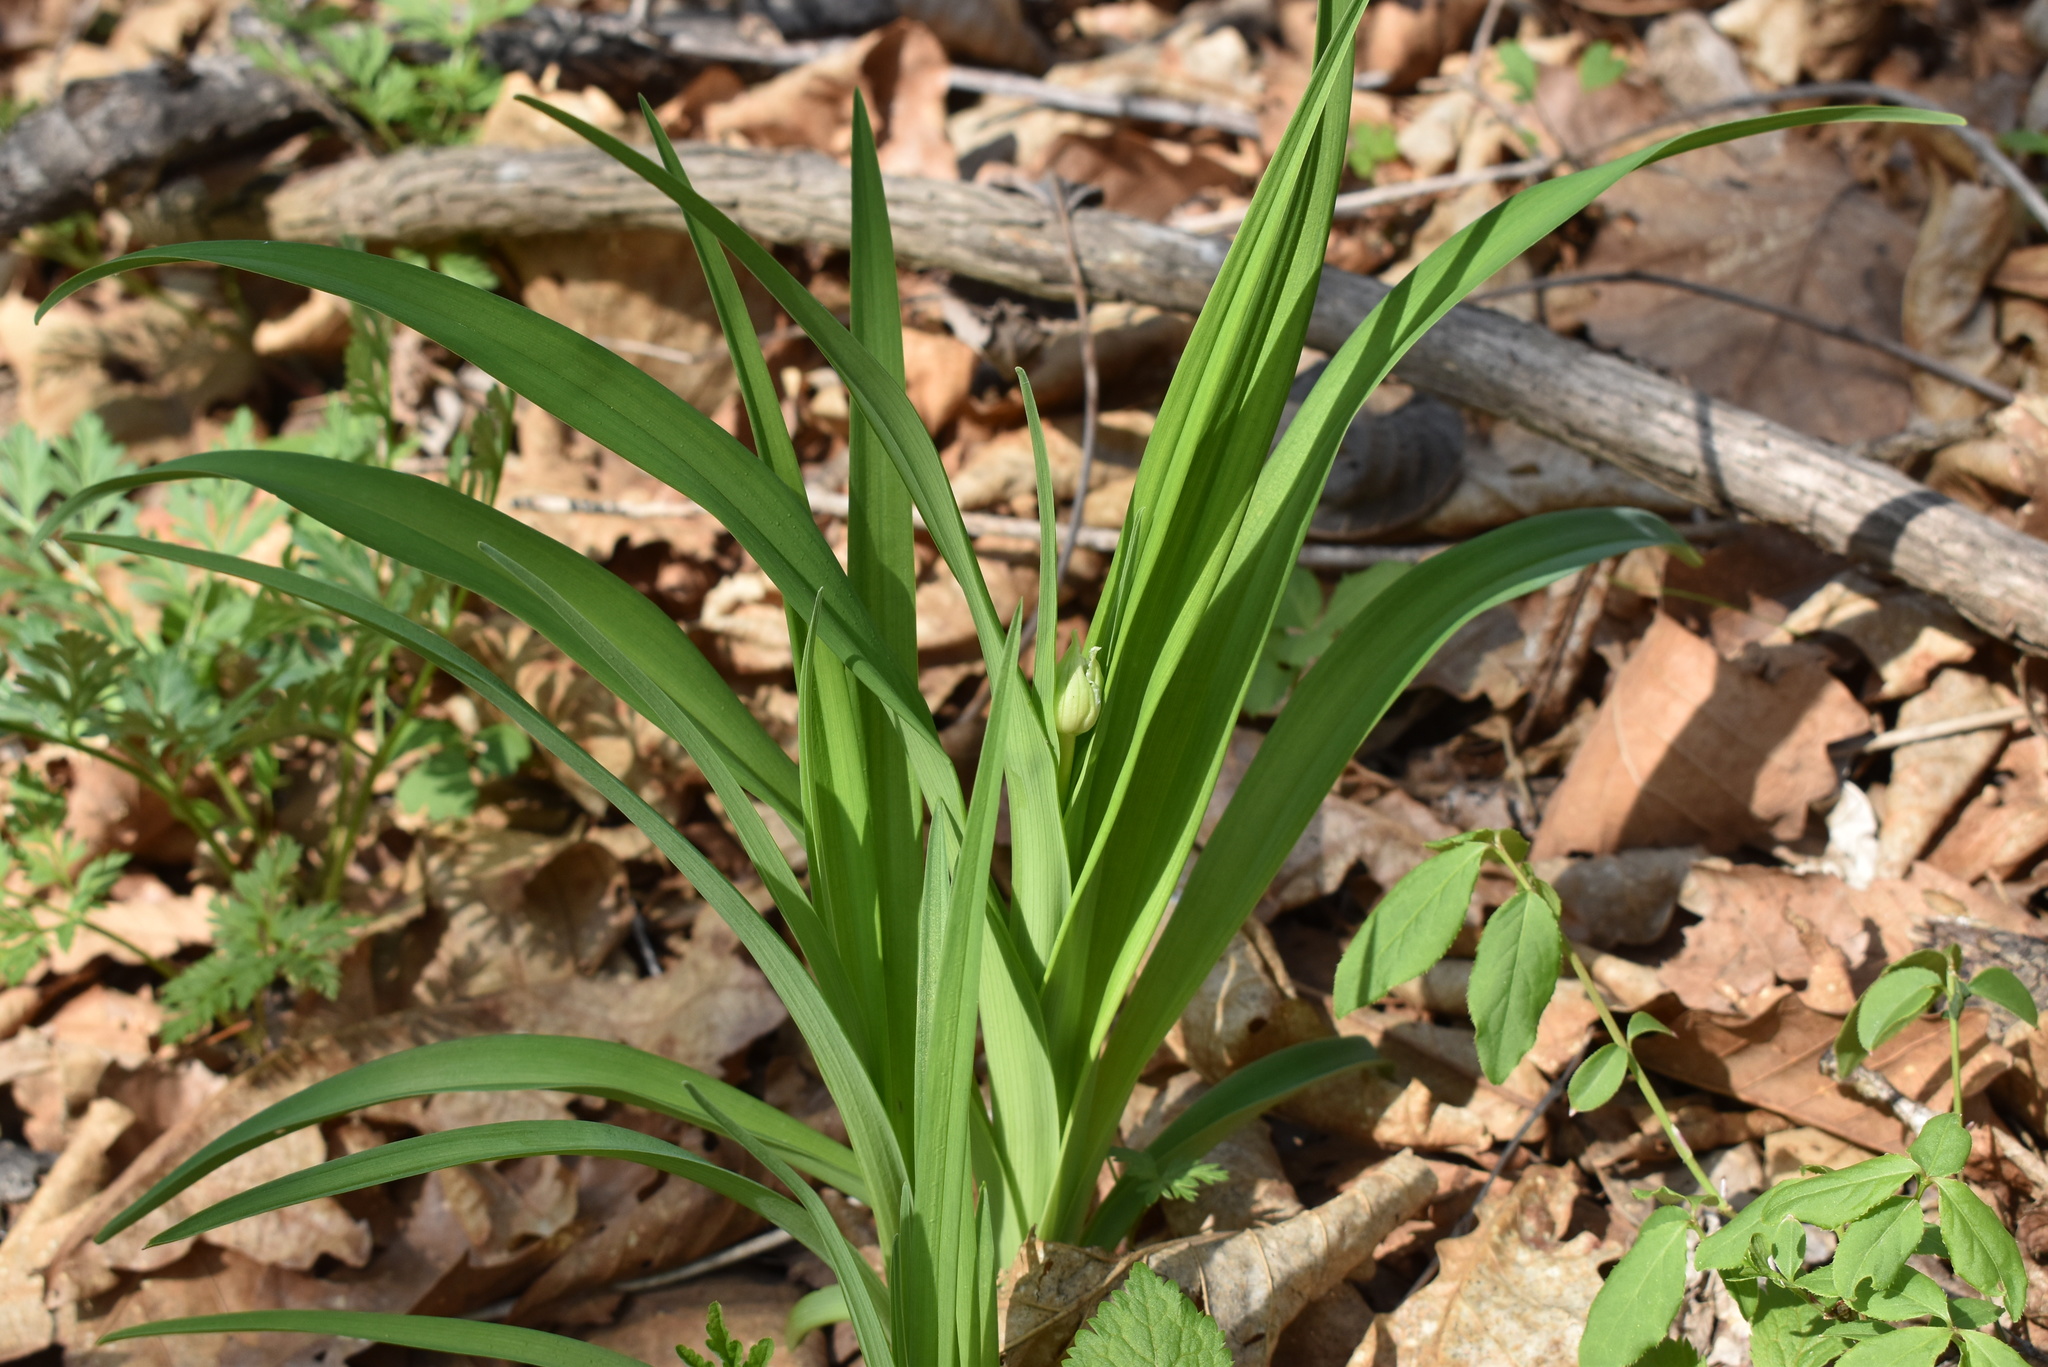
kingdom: Plantae
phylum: Tracheophyta
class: Liliopsida
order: Asparagales
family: Asphodelaceae
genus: Hemerocallis
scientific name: Hemerocallis middendorffii
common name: Amur day-lily
